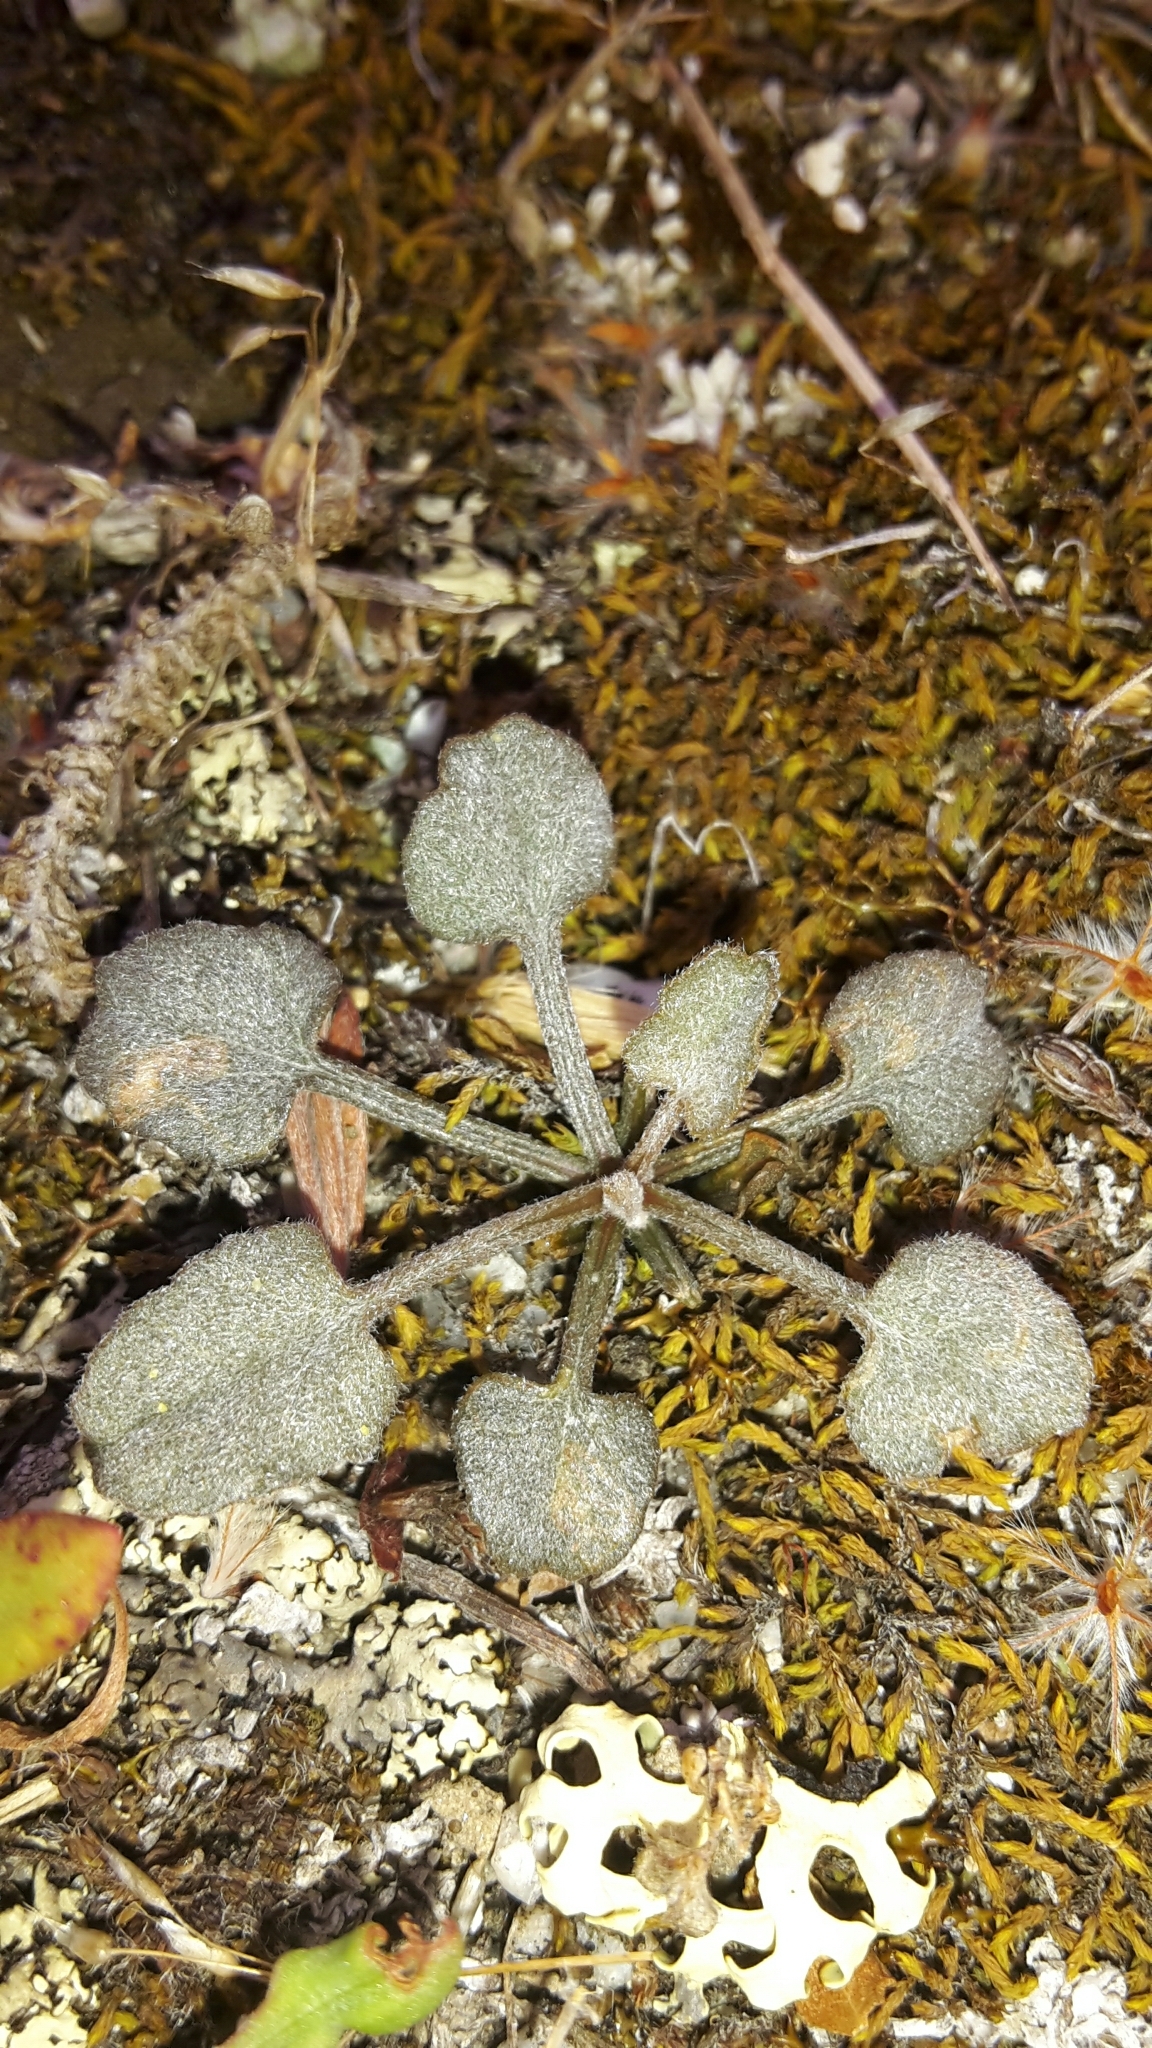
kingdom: Plantae
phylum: Tracheophyta
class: Magnoliopsida
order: Solanales
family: Convolvulaceae
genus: Convolvulus
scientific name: Convolvulus verecundus
